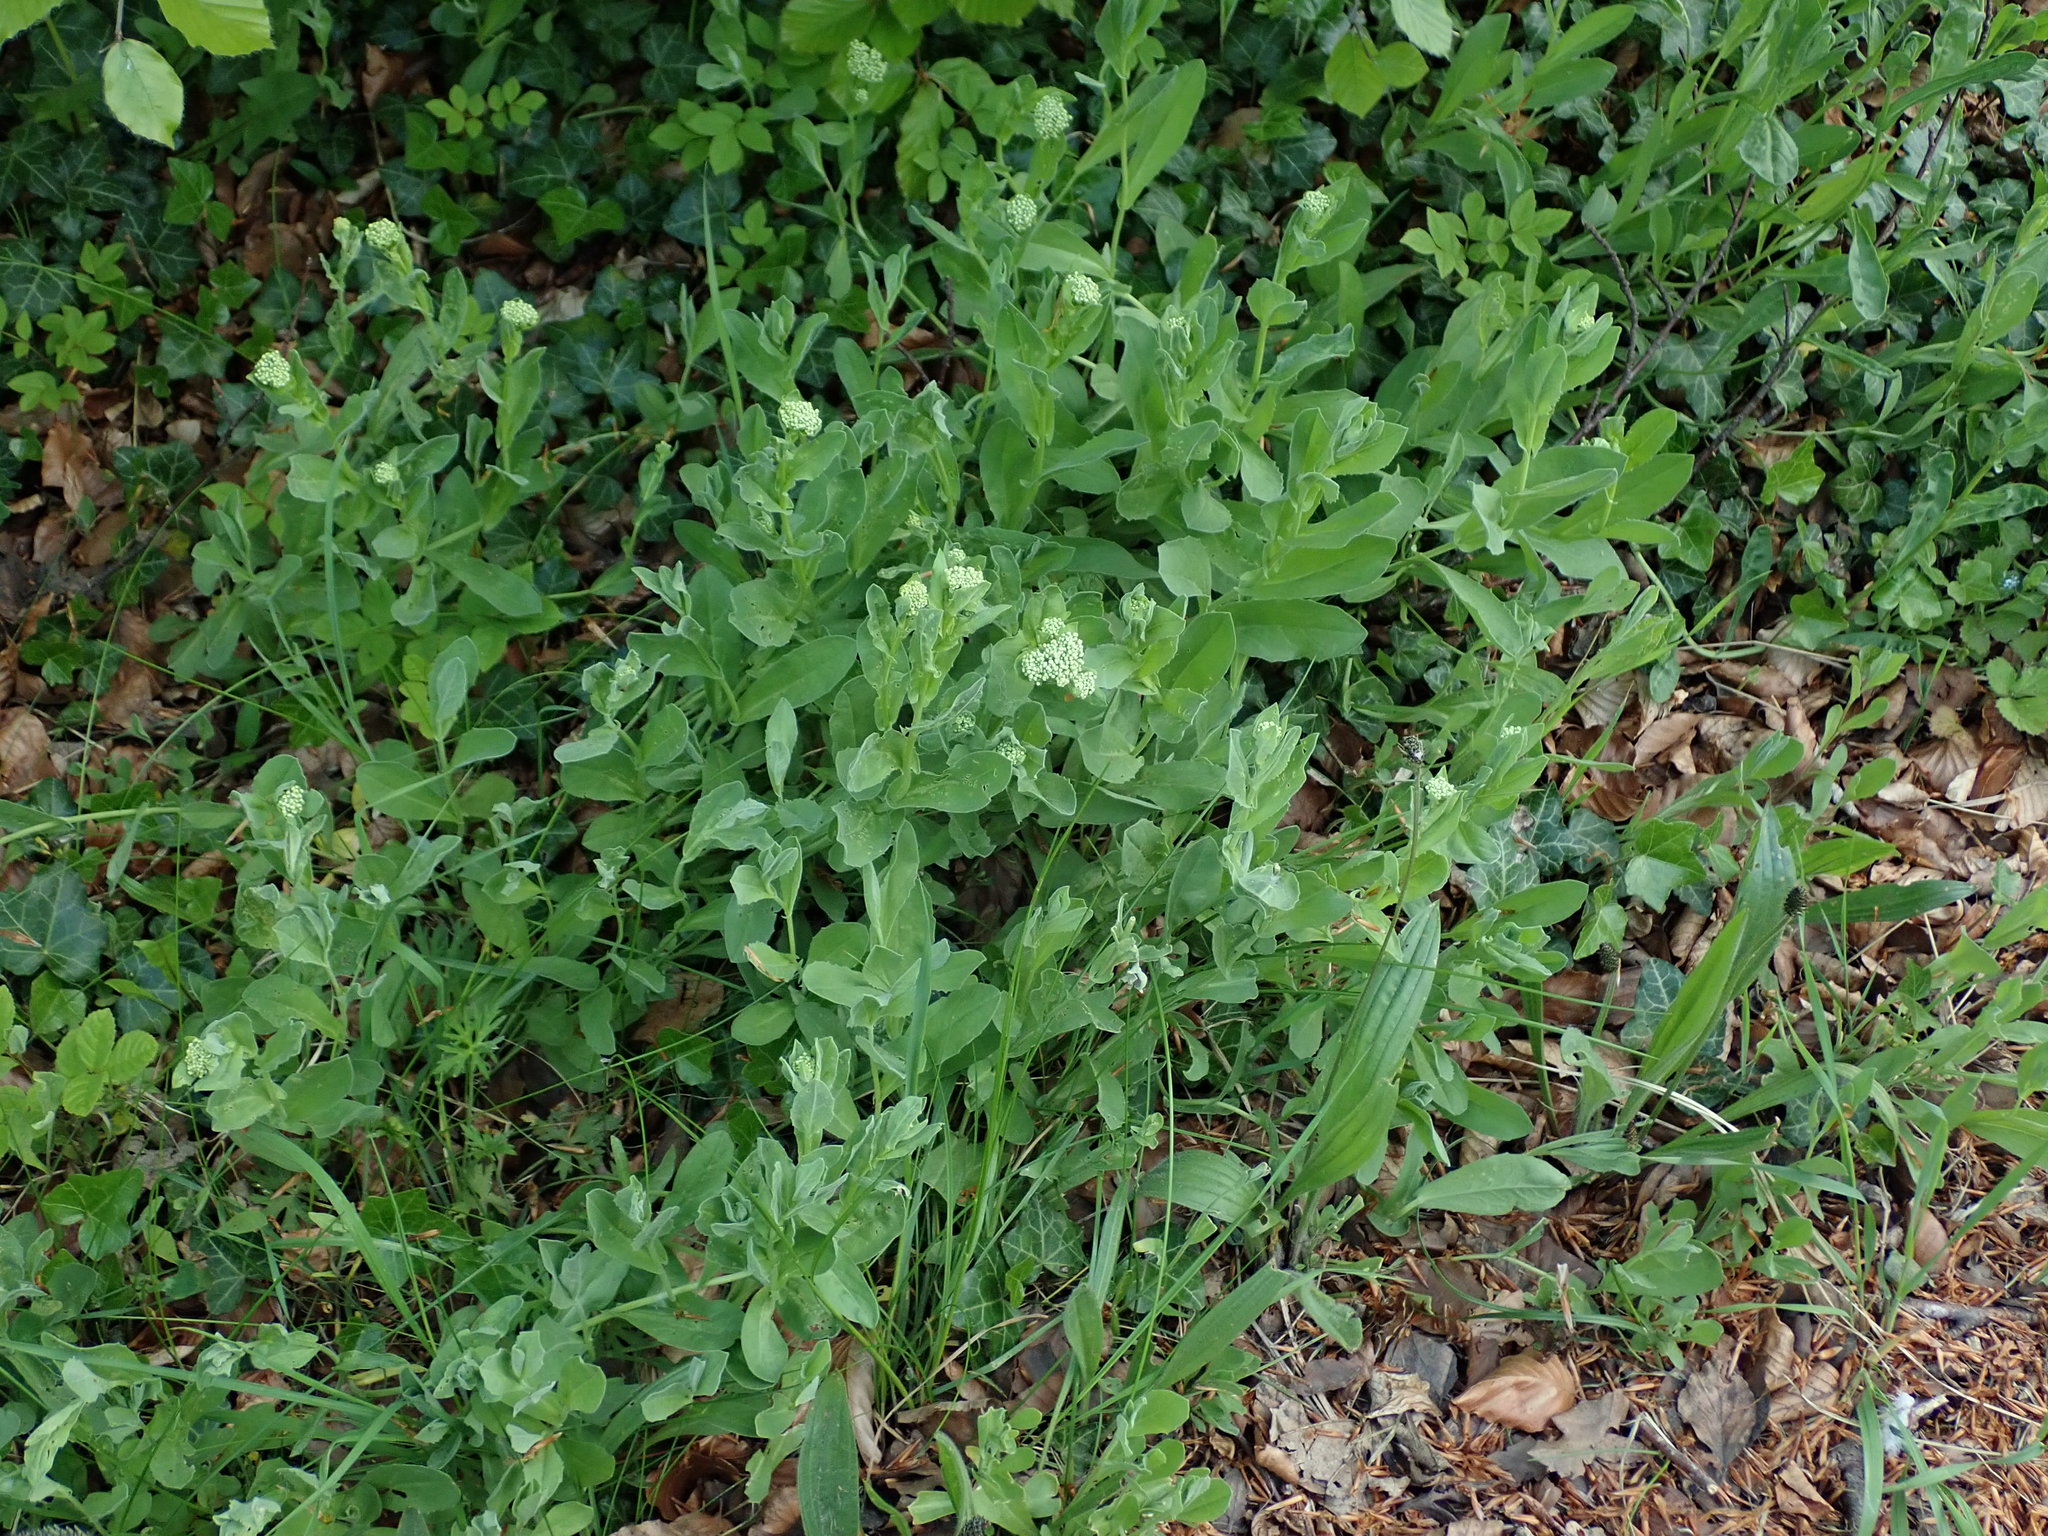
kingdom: Plantae
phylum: Tracheophyta
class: Magnoliopsida
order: Brassicales
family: Brassicaceae
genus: Lepidium
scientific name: Lepidium draba
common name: Hoary cress
